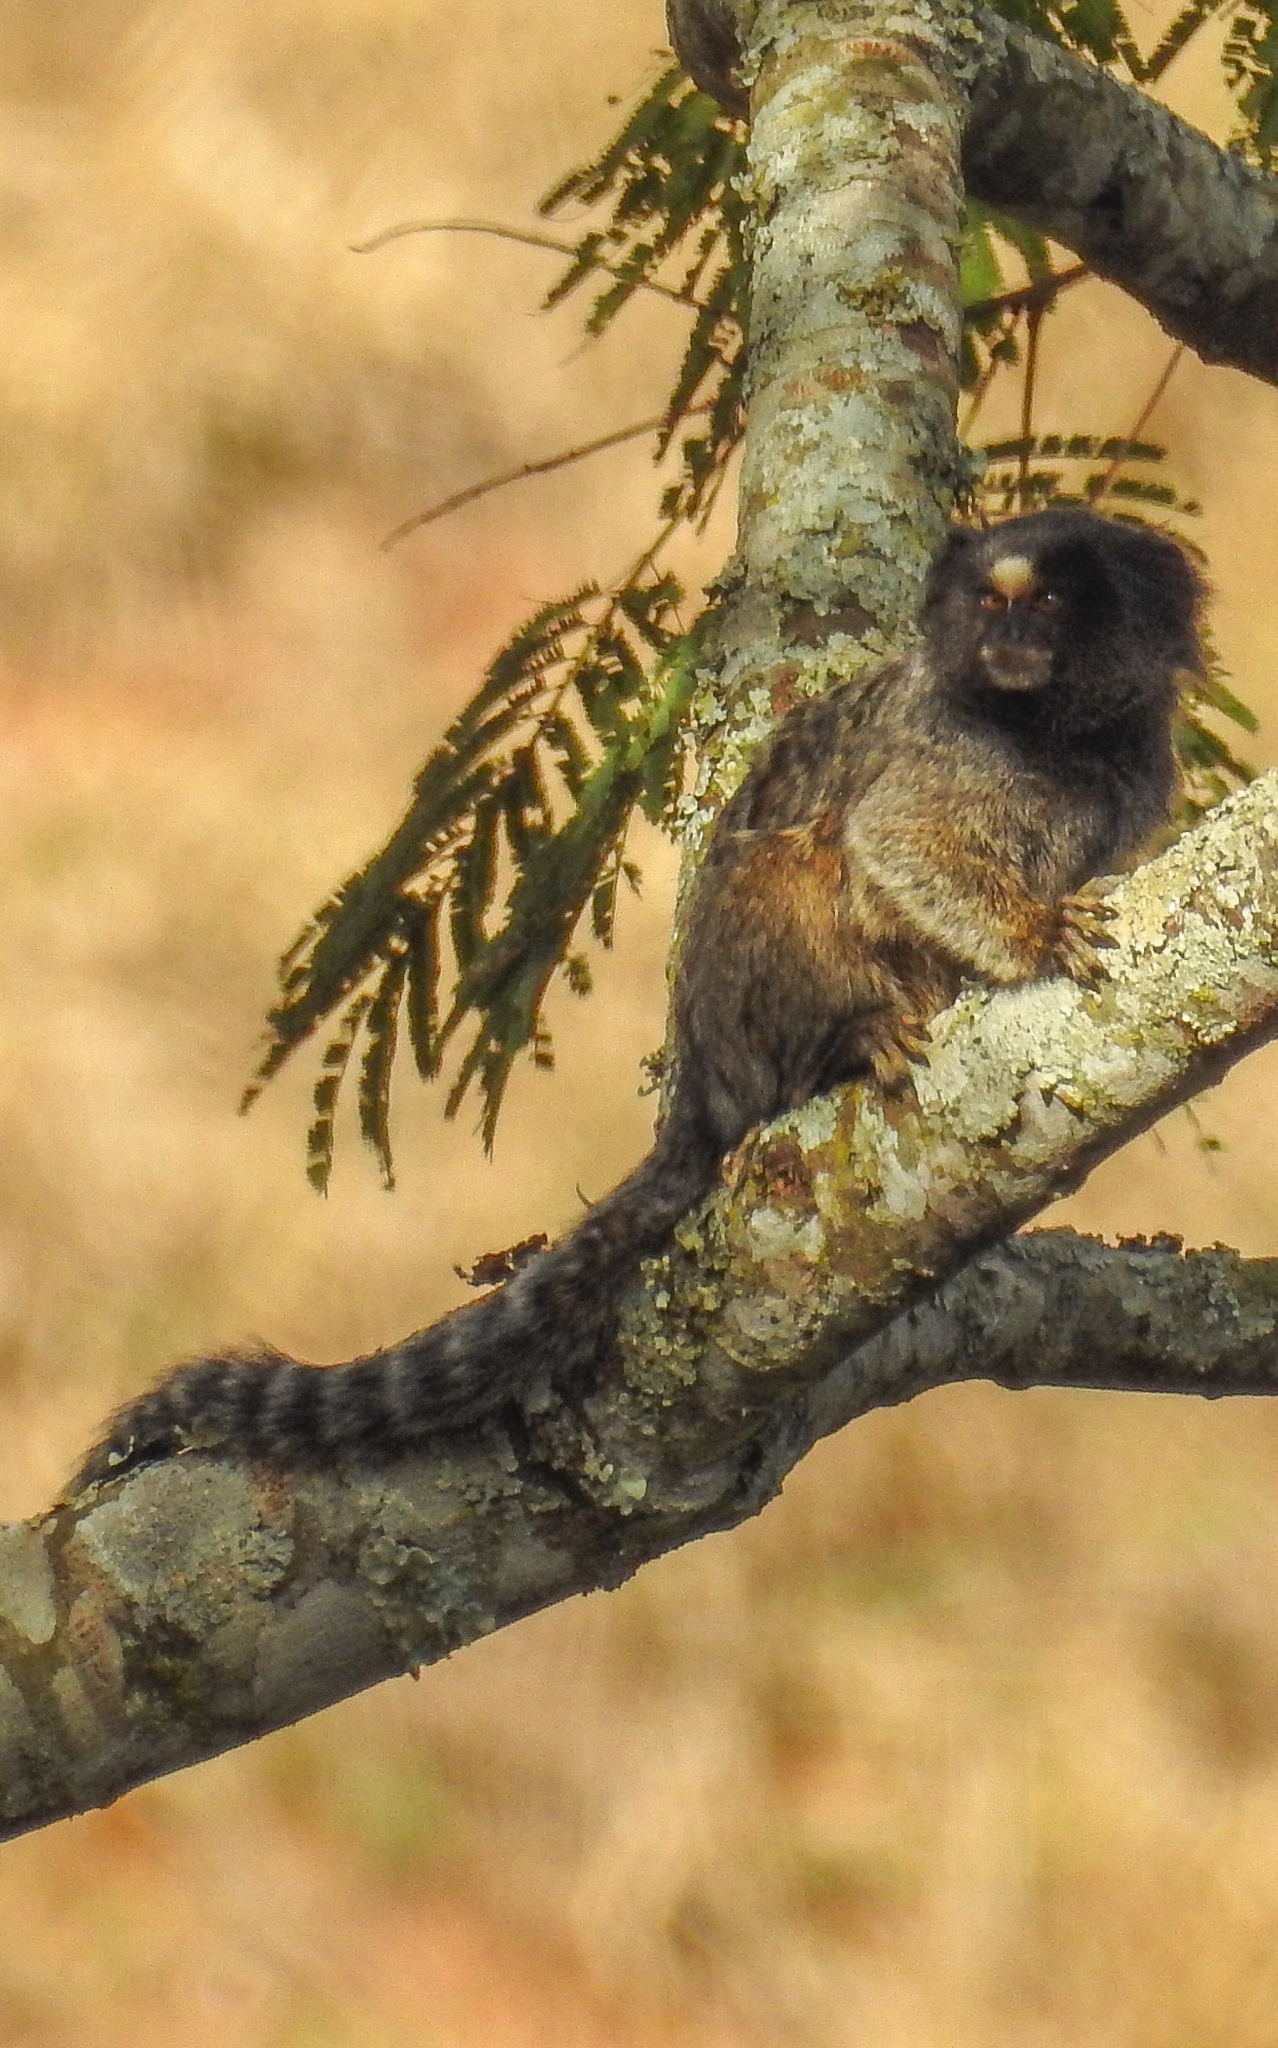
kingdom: Animalia
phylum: Chordata
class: Mammalia
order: Primates
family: Callitrichidae
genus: Callithrix
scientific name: Callithrix penicillata
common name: Black-tufted marmoset
